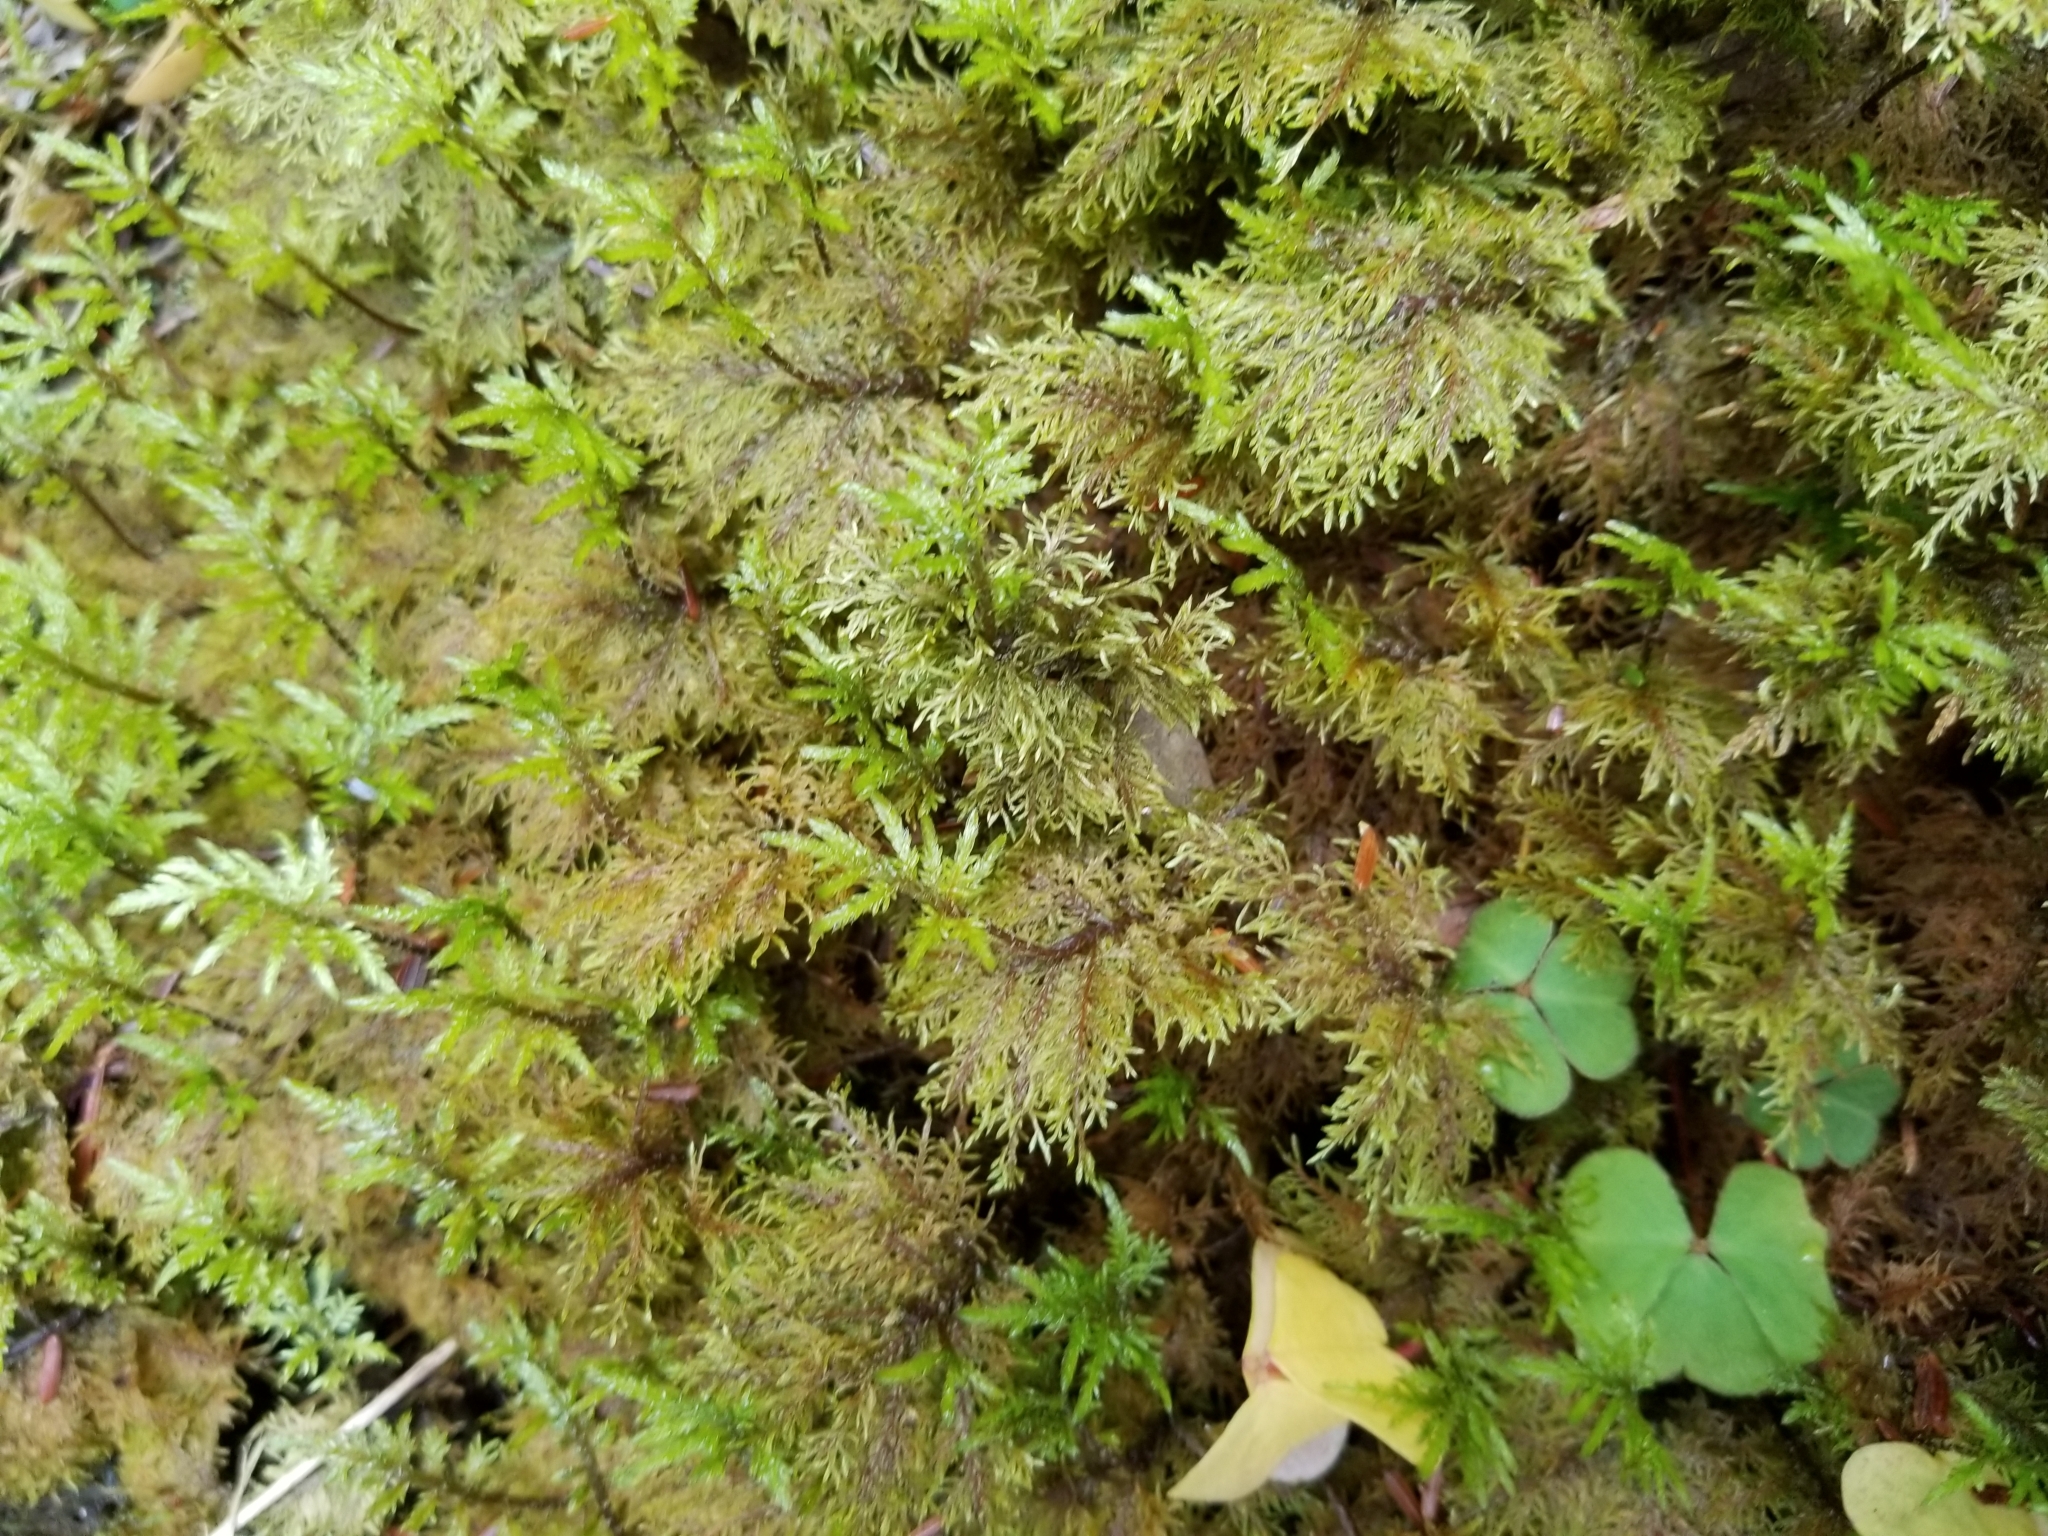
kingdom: Plantae
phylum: Bryophyta
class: Bryopsida
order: Hypnales
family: Hylocomiaceae
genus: Hylocomium
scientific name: Hylocomium splendens
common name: Stairstep moss
